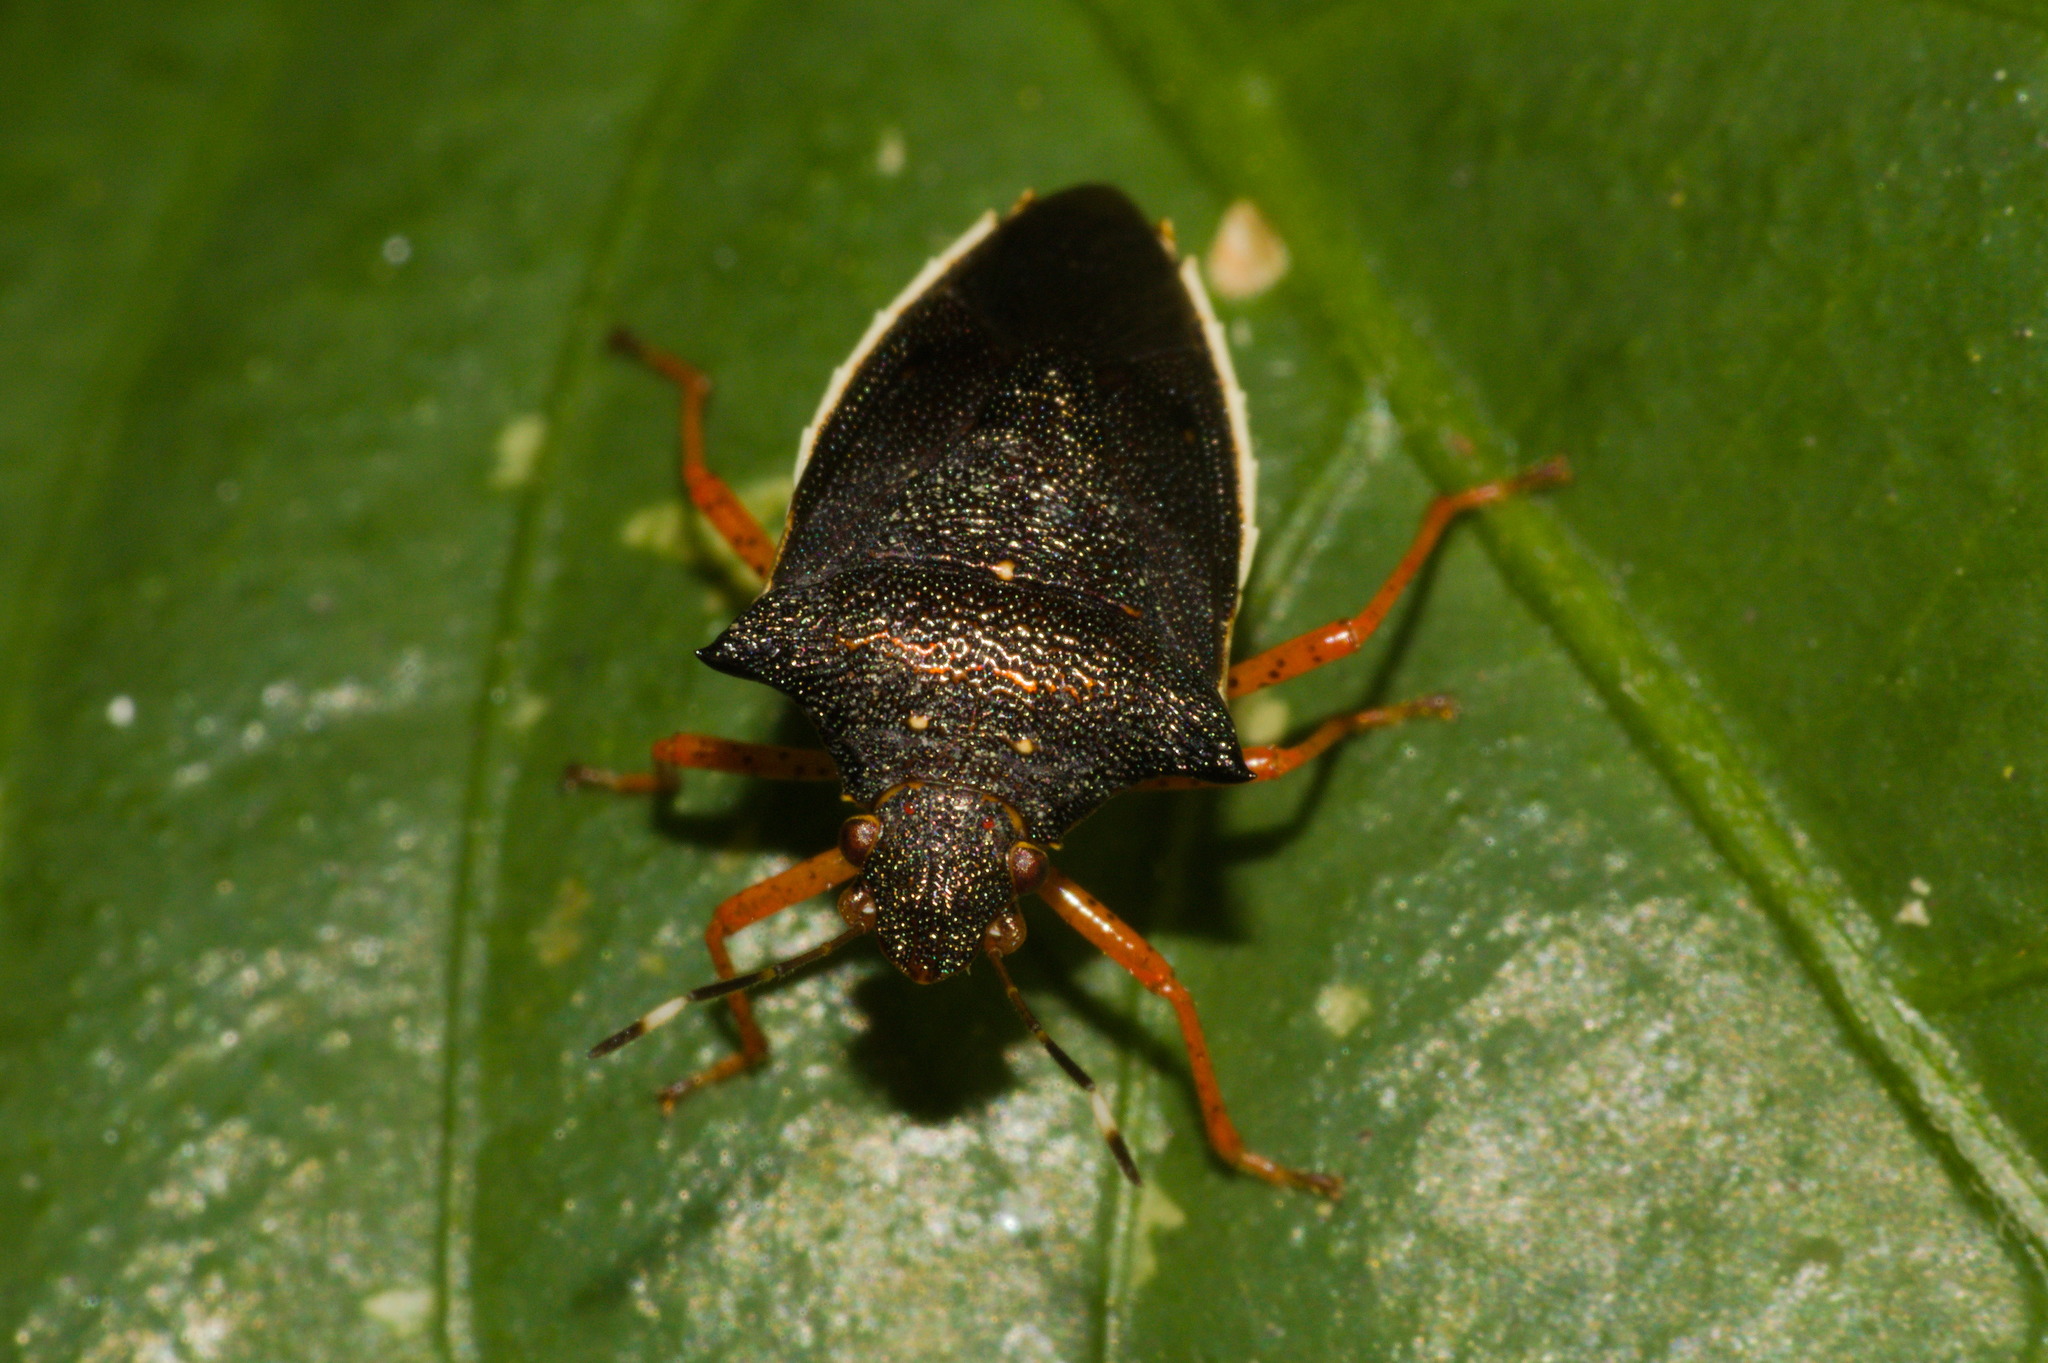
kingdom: Animalia
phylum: Arthropoda
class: Insecta
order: Hemiptera
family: Pentatomidae
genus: Mormidea
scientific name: Mormidea
